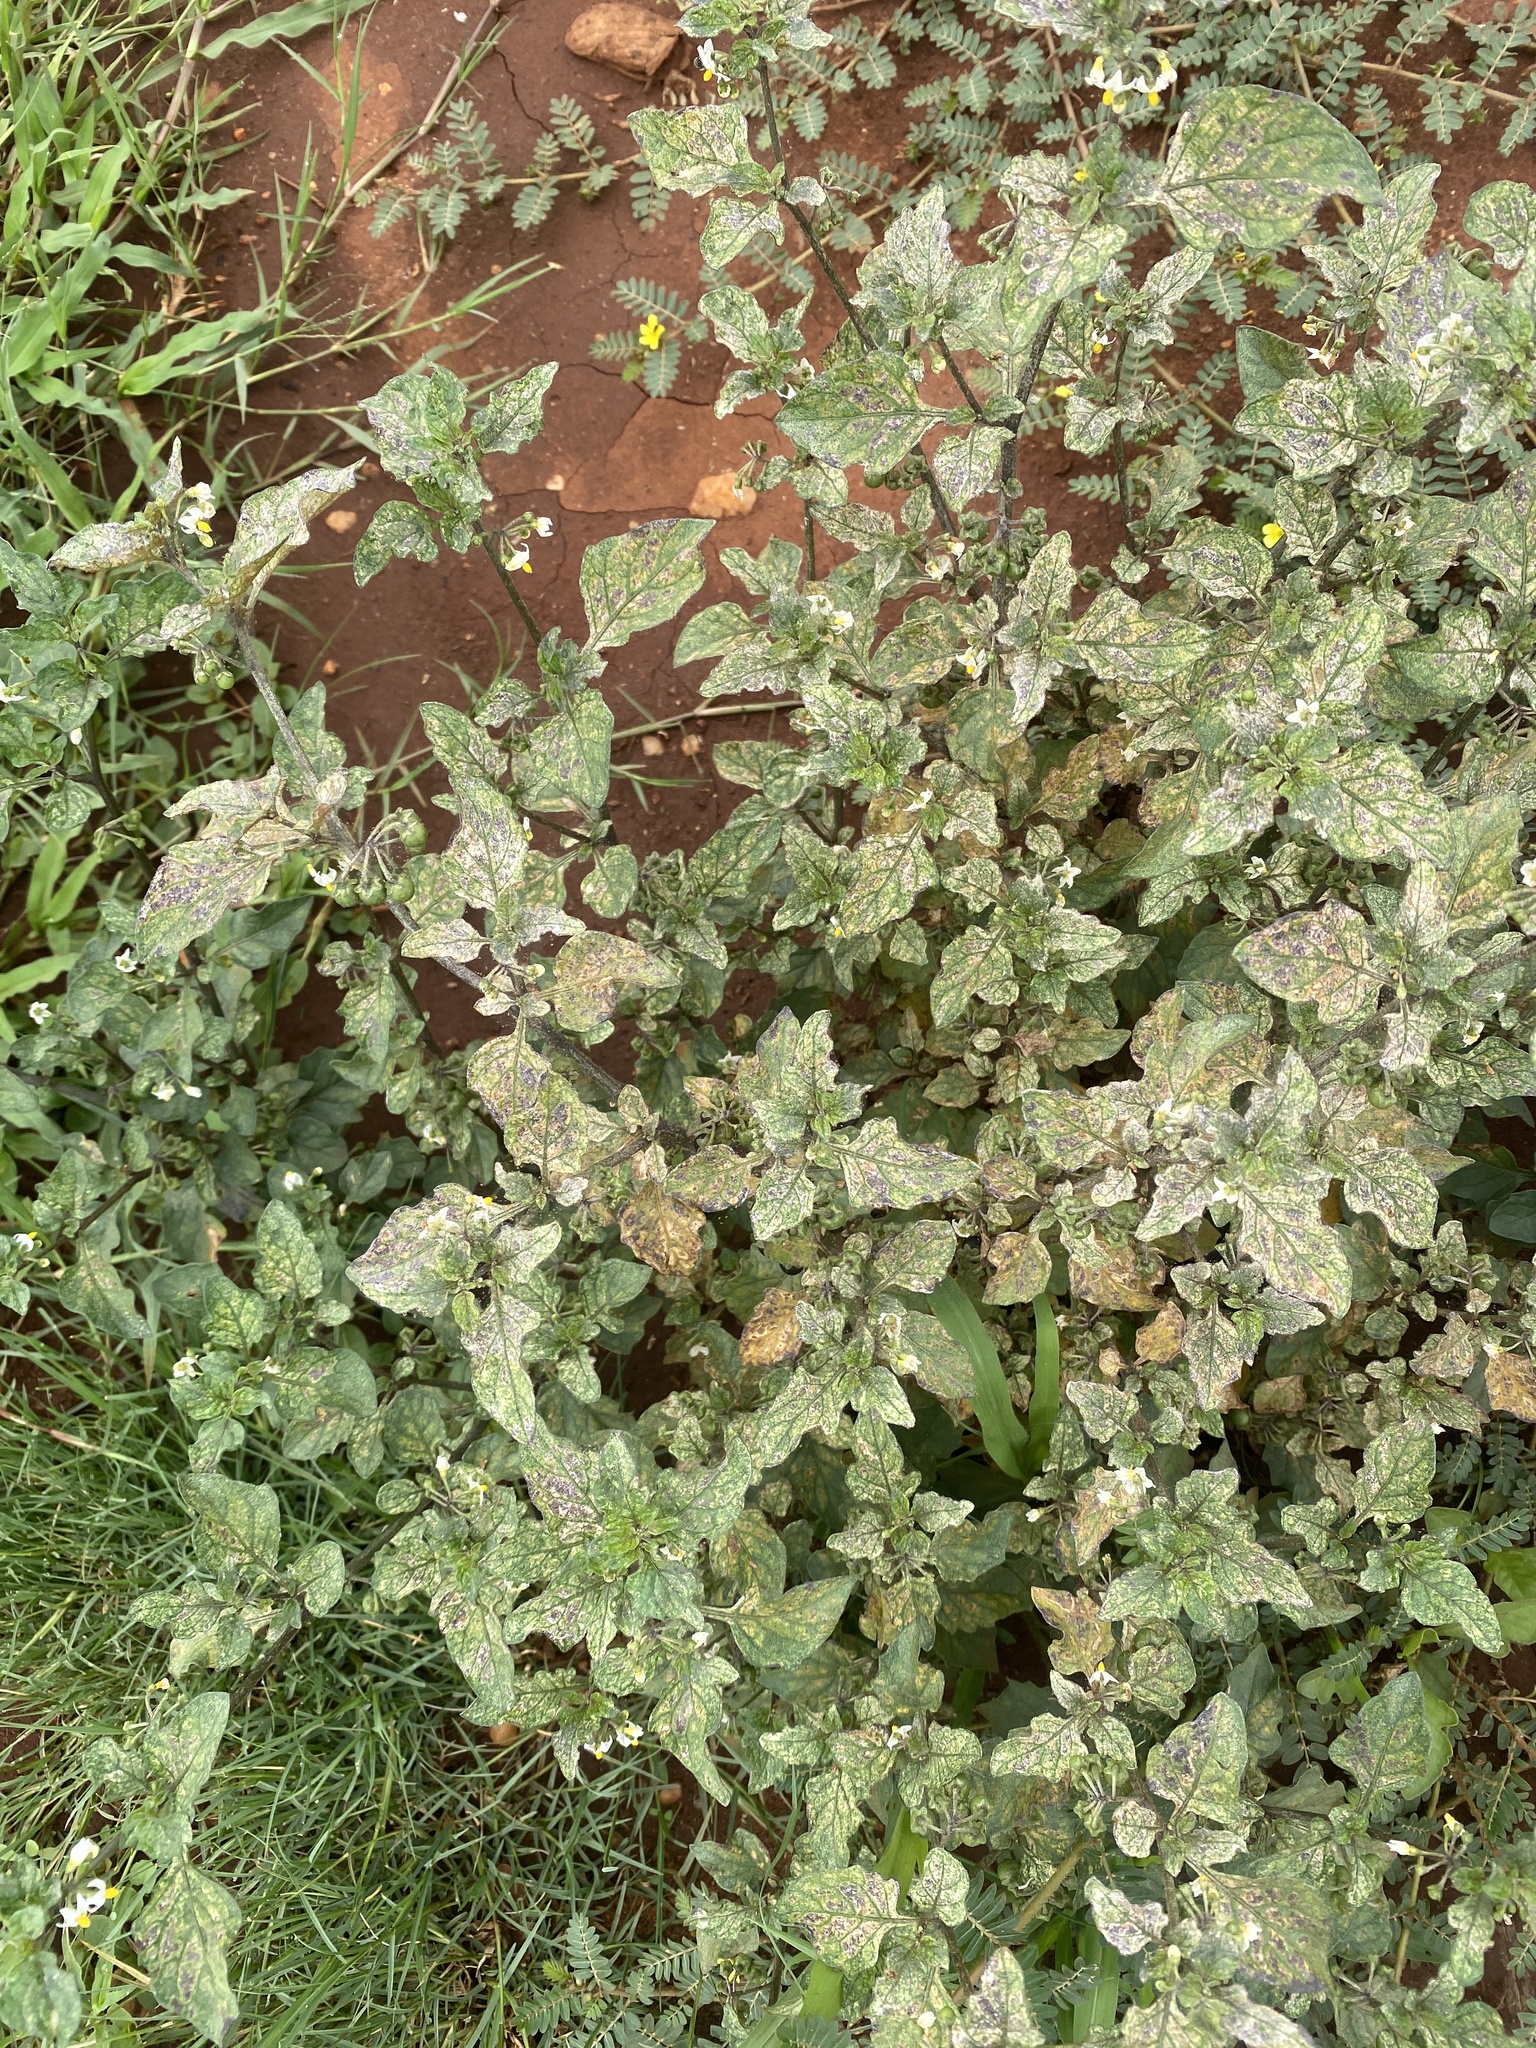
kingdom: Plantae
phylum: Tracheophyta
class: Magnoliopsida
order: Solanales
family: Solanaceae
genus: Solanum
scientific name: Solanum nigrum
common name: Black nightshade
